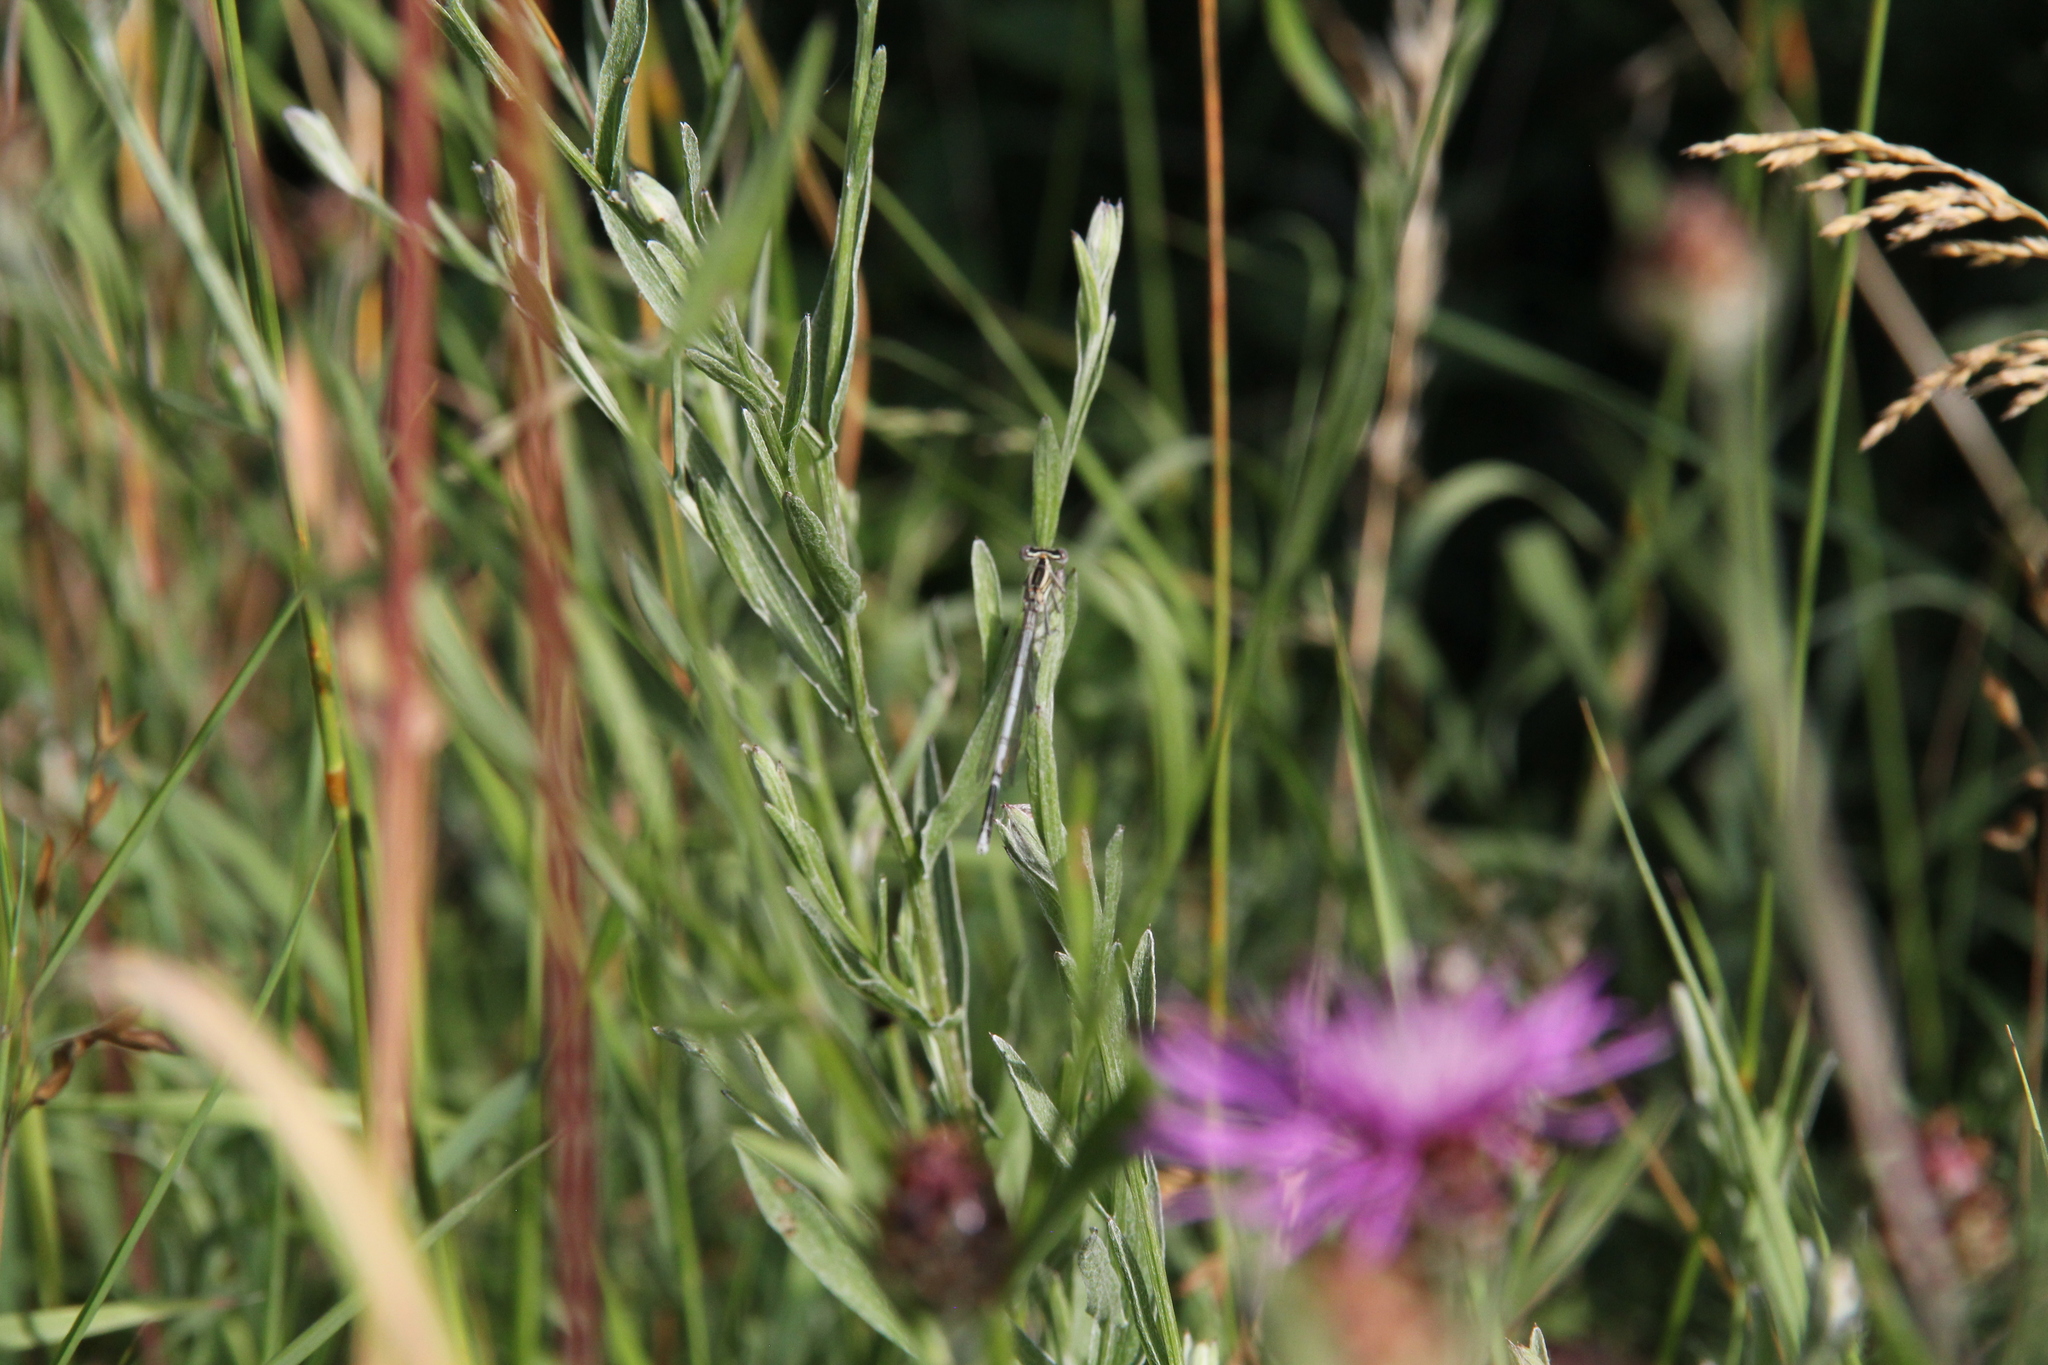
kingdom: Animalia
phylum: Arthropoda
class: Insecta
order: Odonata
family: Platycnemididae
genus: Platycnemis
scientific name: Platycnemis pennipes
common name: White-legged damselfly
